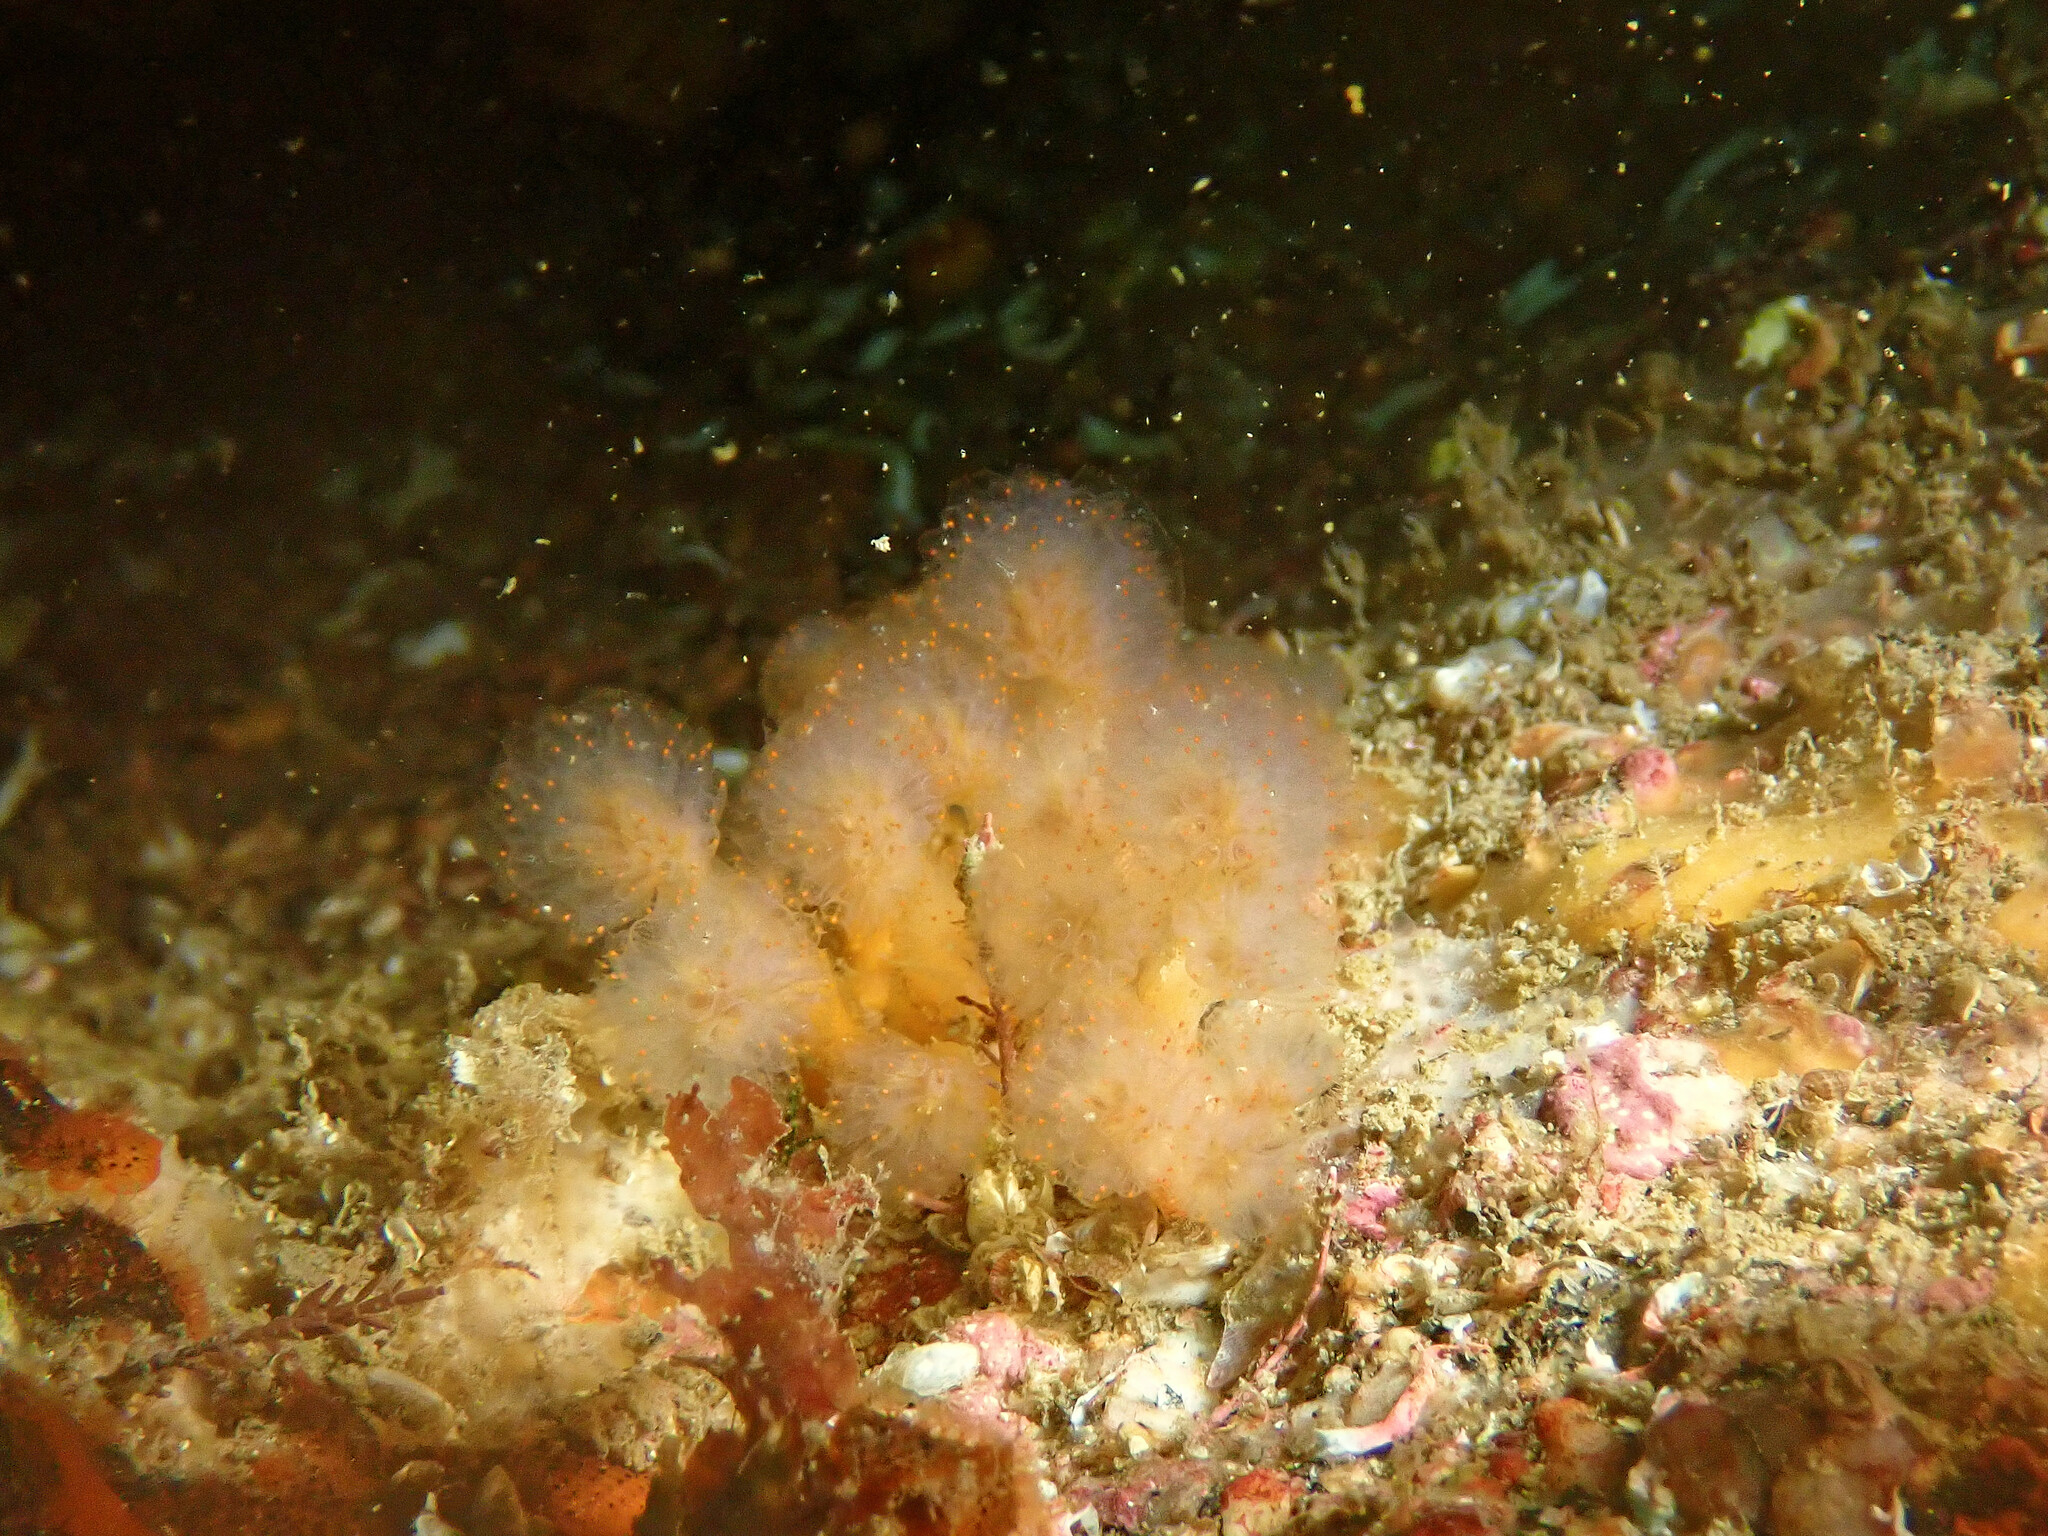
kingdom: Animalia
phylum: Chordata
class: Ascidiacea
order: Aplousobranchia
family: Polyclinidae
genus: Aplidium
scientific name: Aplidium punctum
